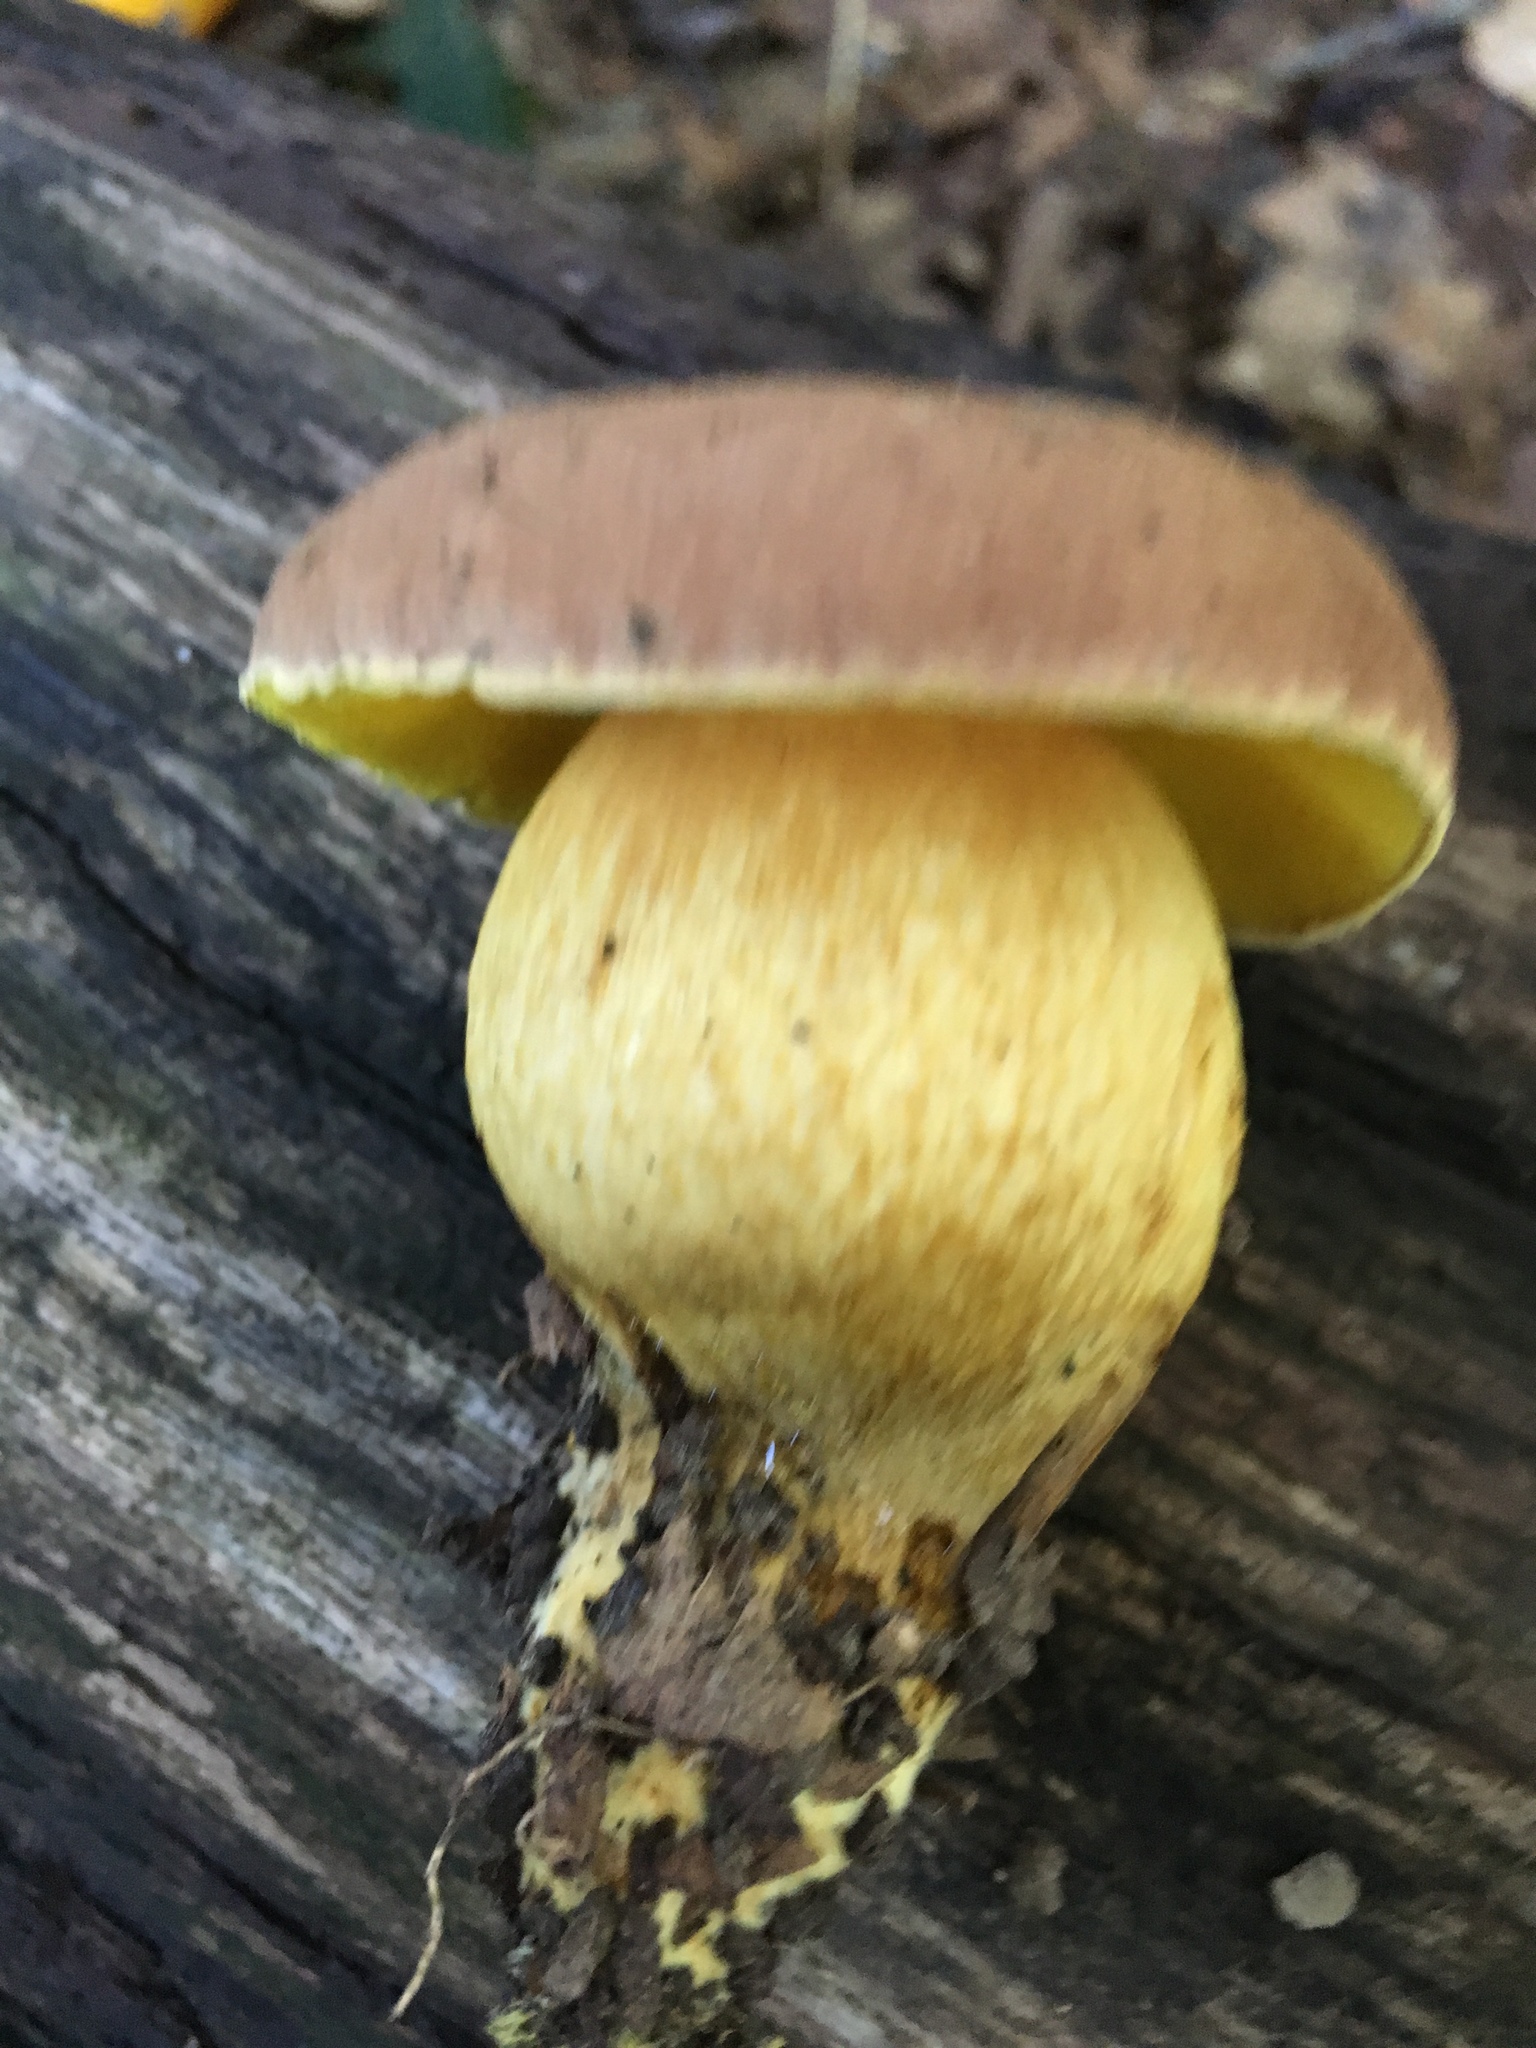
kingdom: Fungi
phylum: Basidiomycota
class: Agaricomycetes
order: Boletales
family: Boletaceae
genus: Aureoboletus
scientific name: Aureoboletus innixus
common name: Clustered brown bolete
